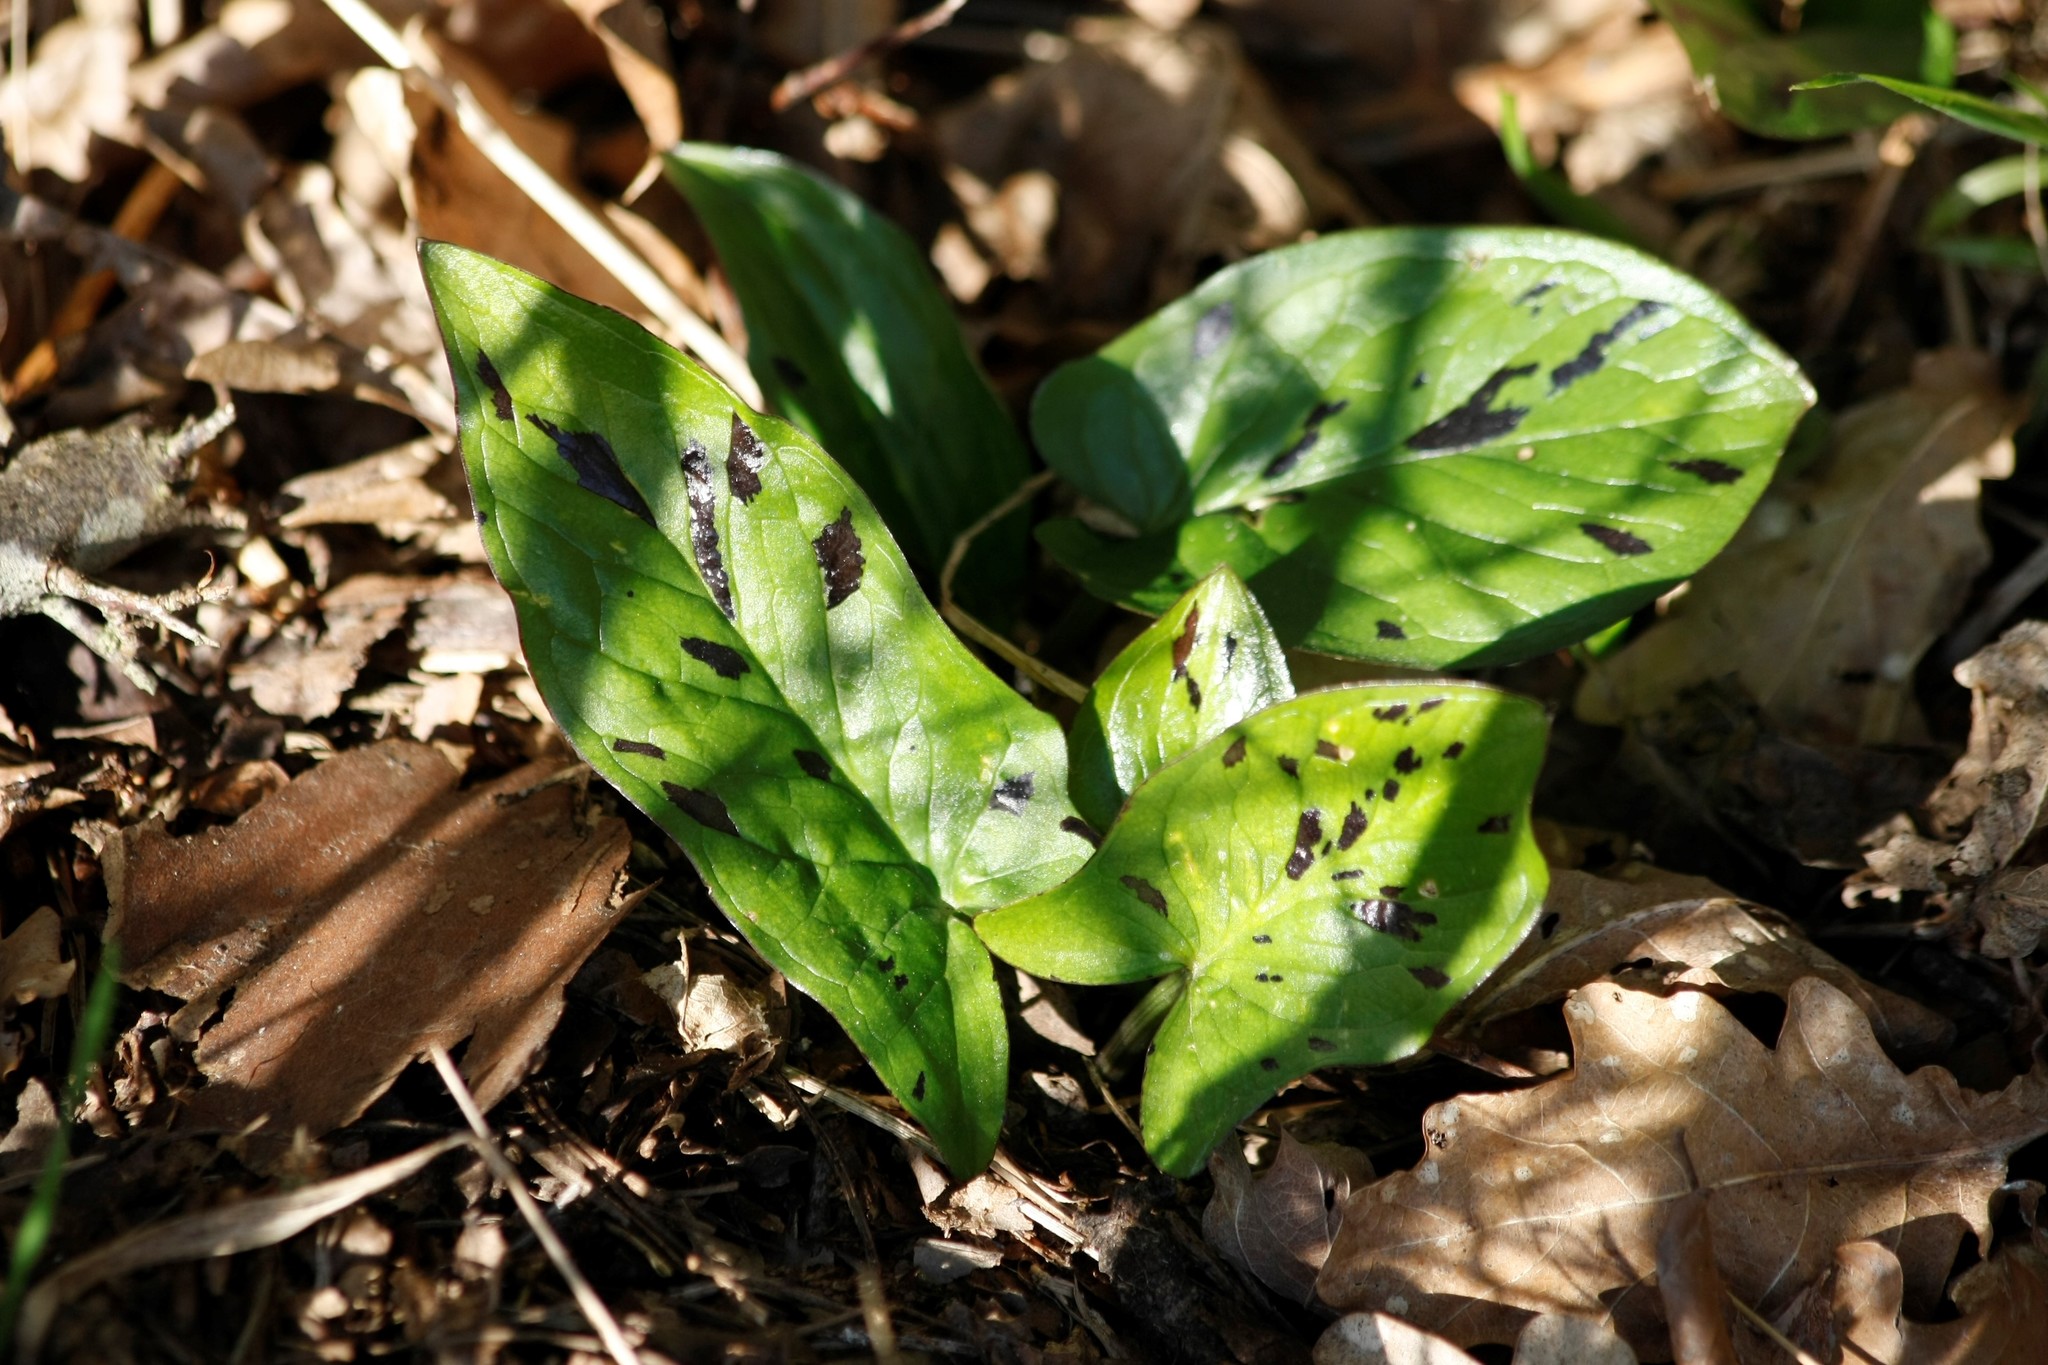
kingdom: Plantae
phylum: Tracheophyta
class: Liliopsida
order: Alismatales
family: Araceae
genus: Arum
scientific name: Arum maculatum
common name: Lords-and-ladies
